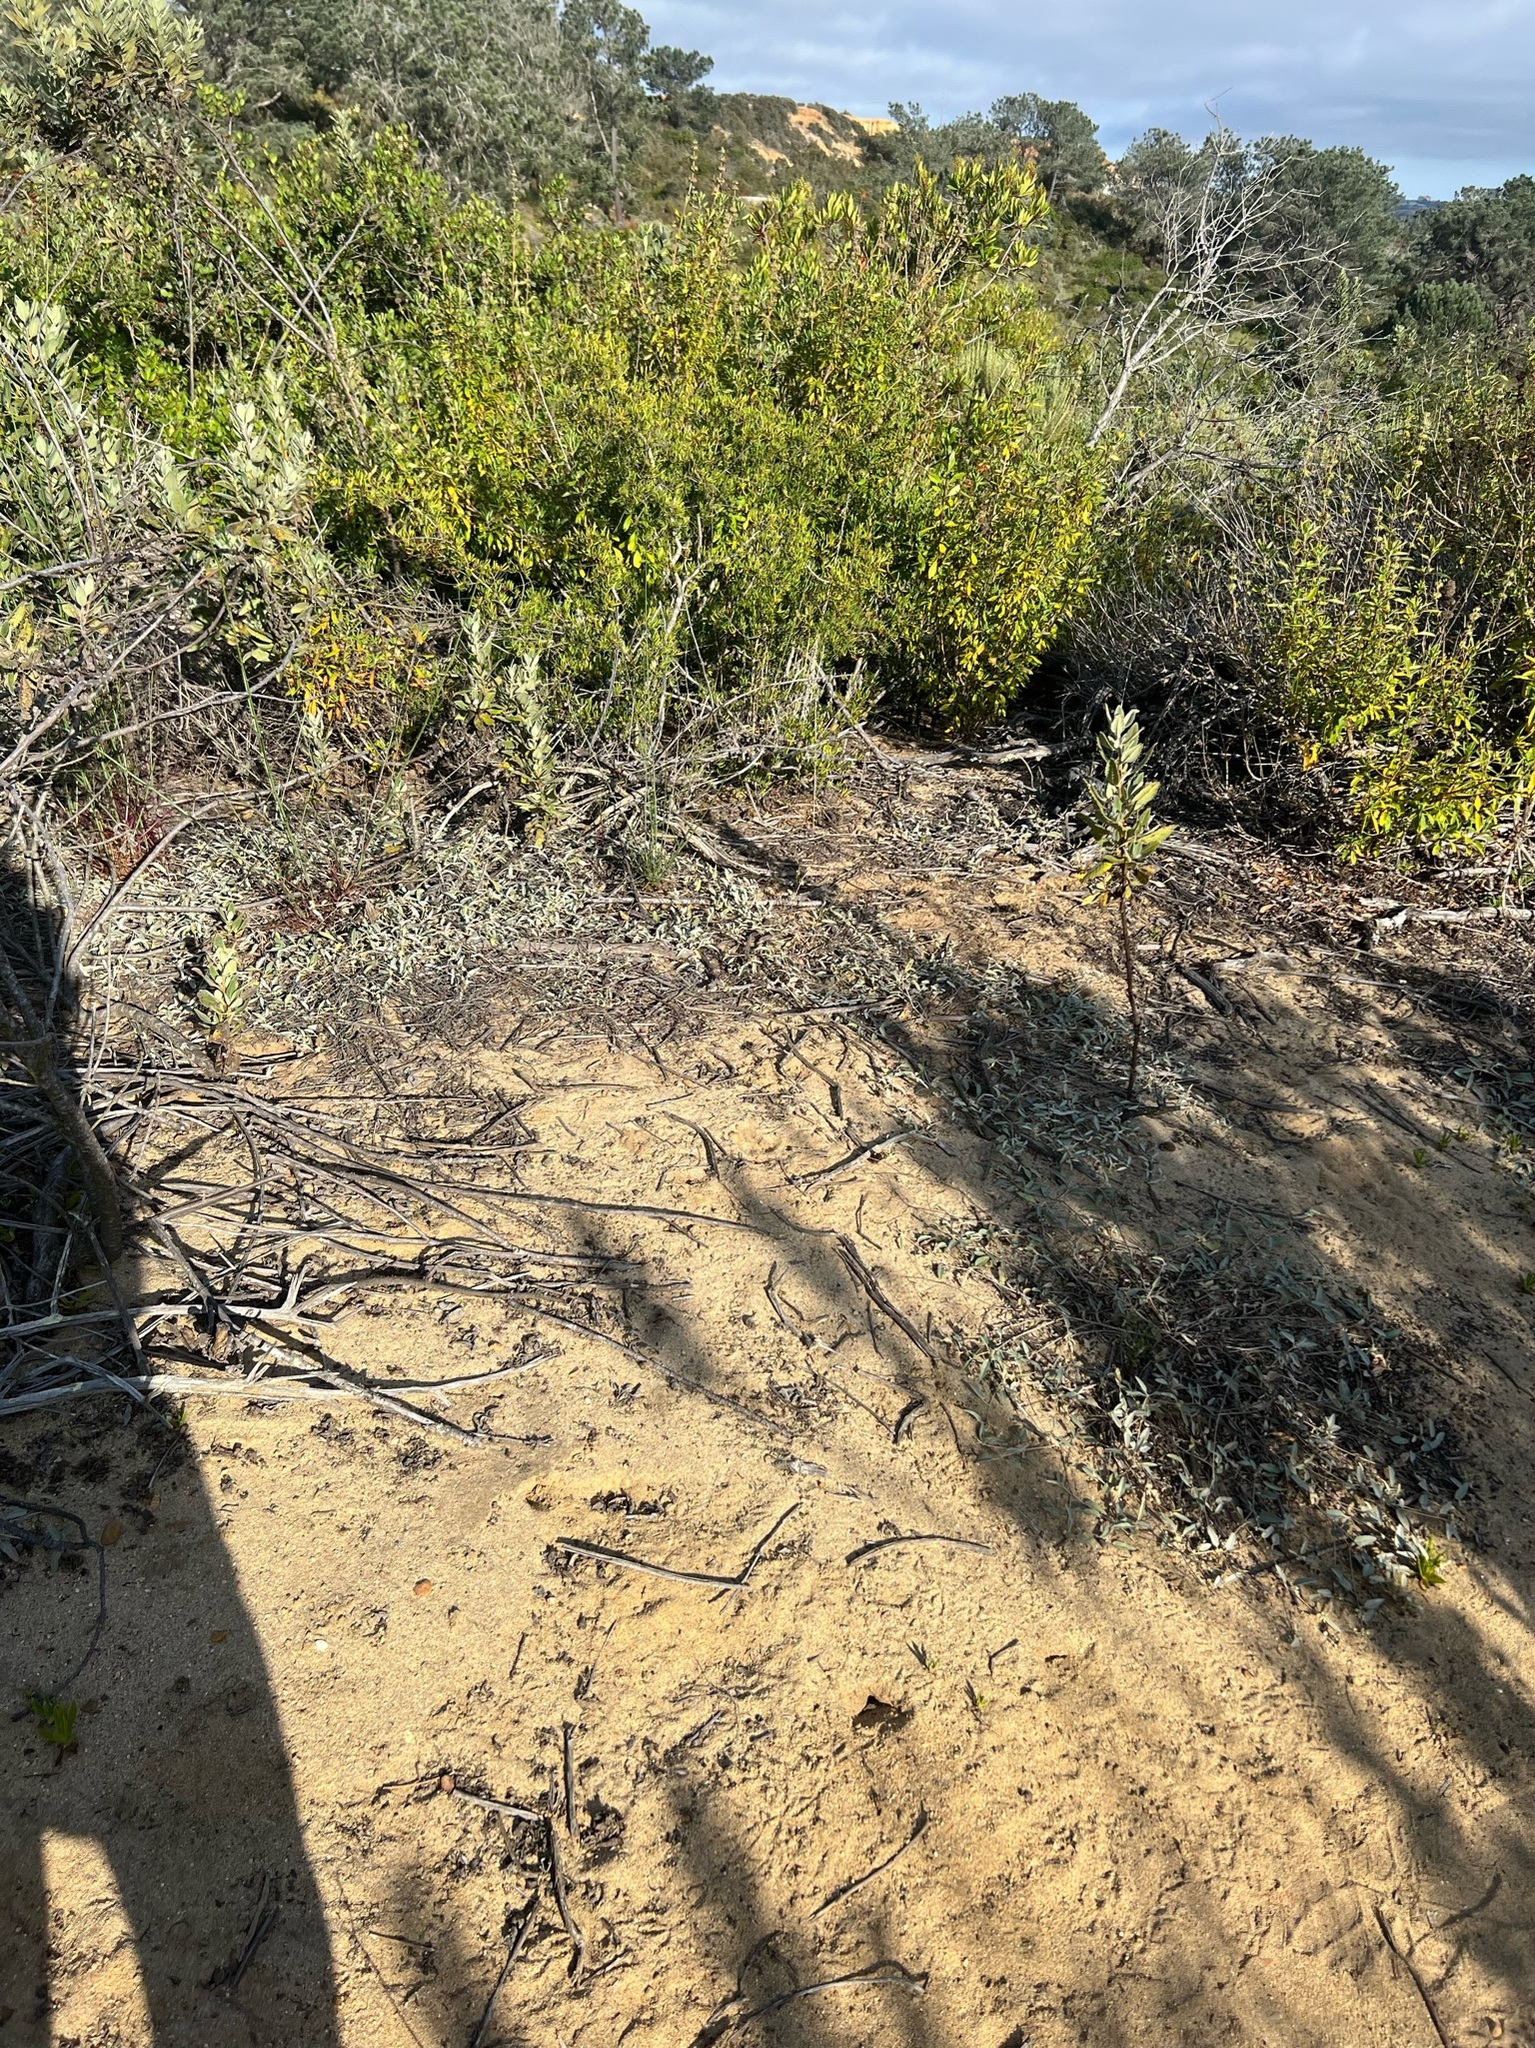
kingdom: Plantae
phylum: Tracheophyta
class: Magnoliopsida
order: Malpighiales
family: Euphorbiaceae
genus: Croton
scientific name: Croton californicus
